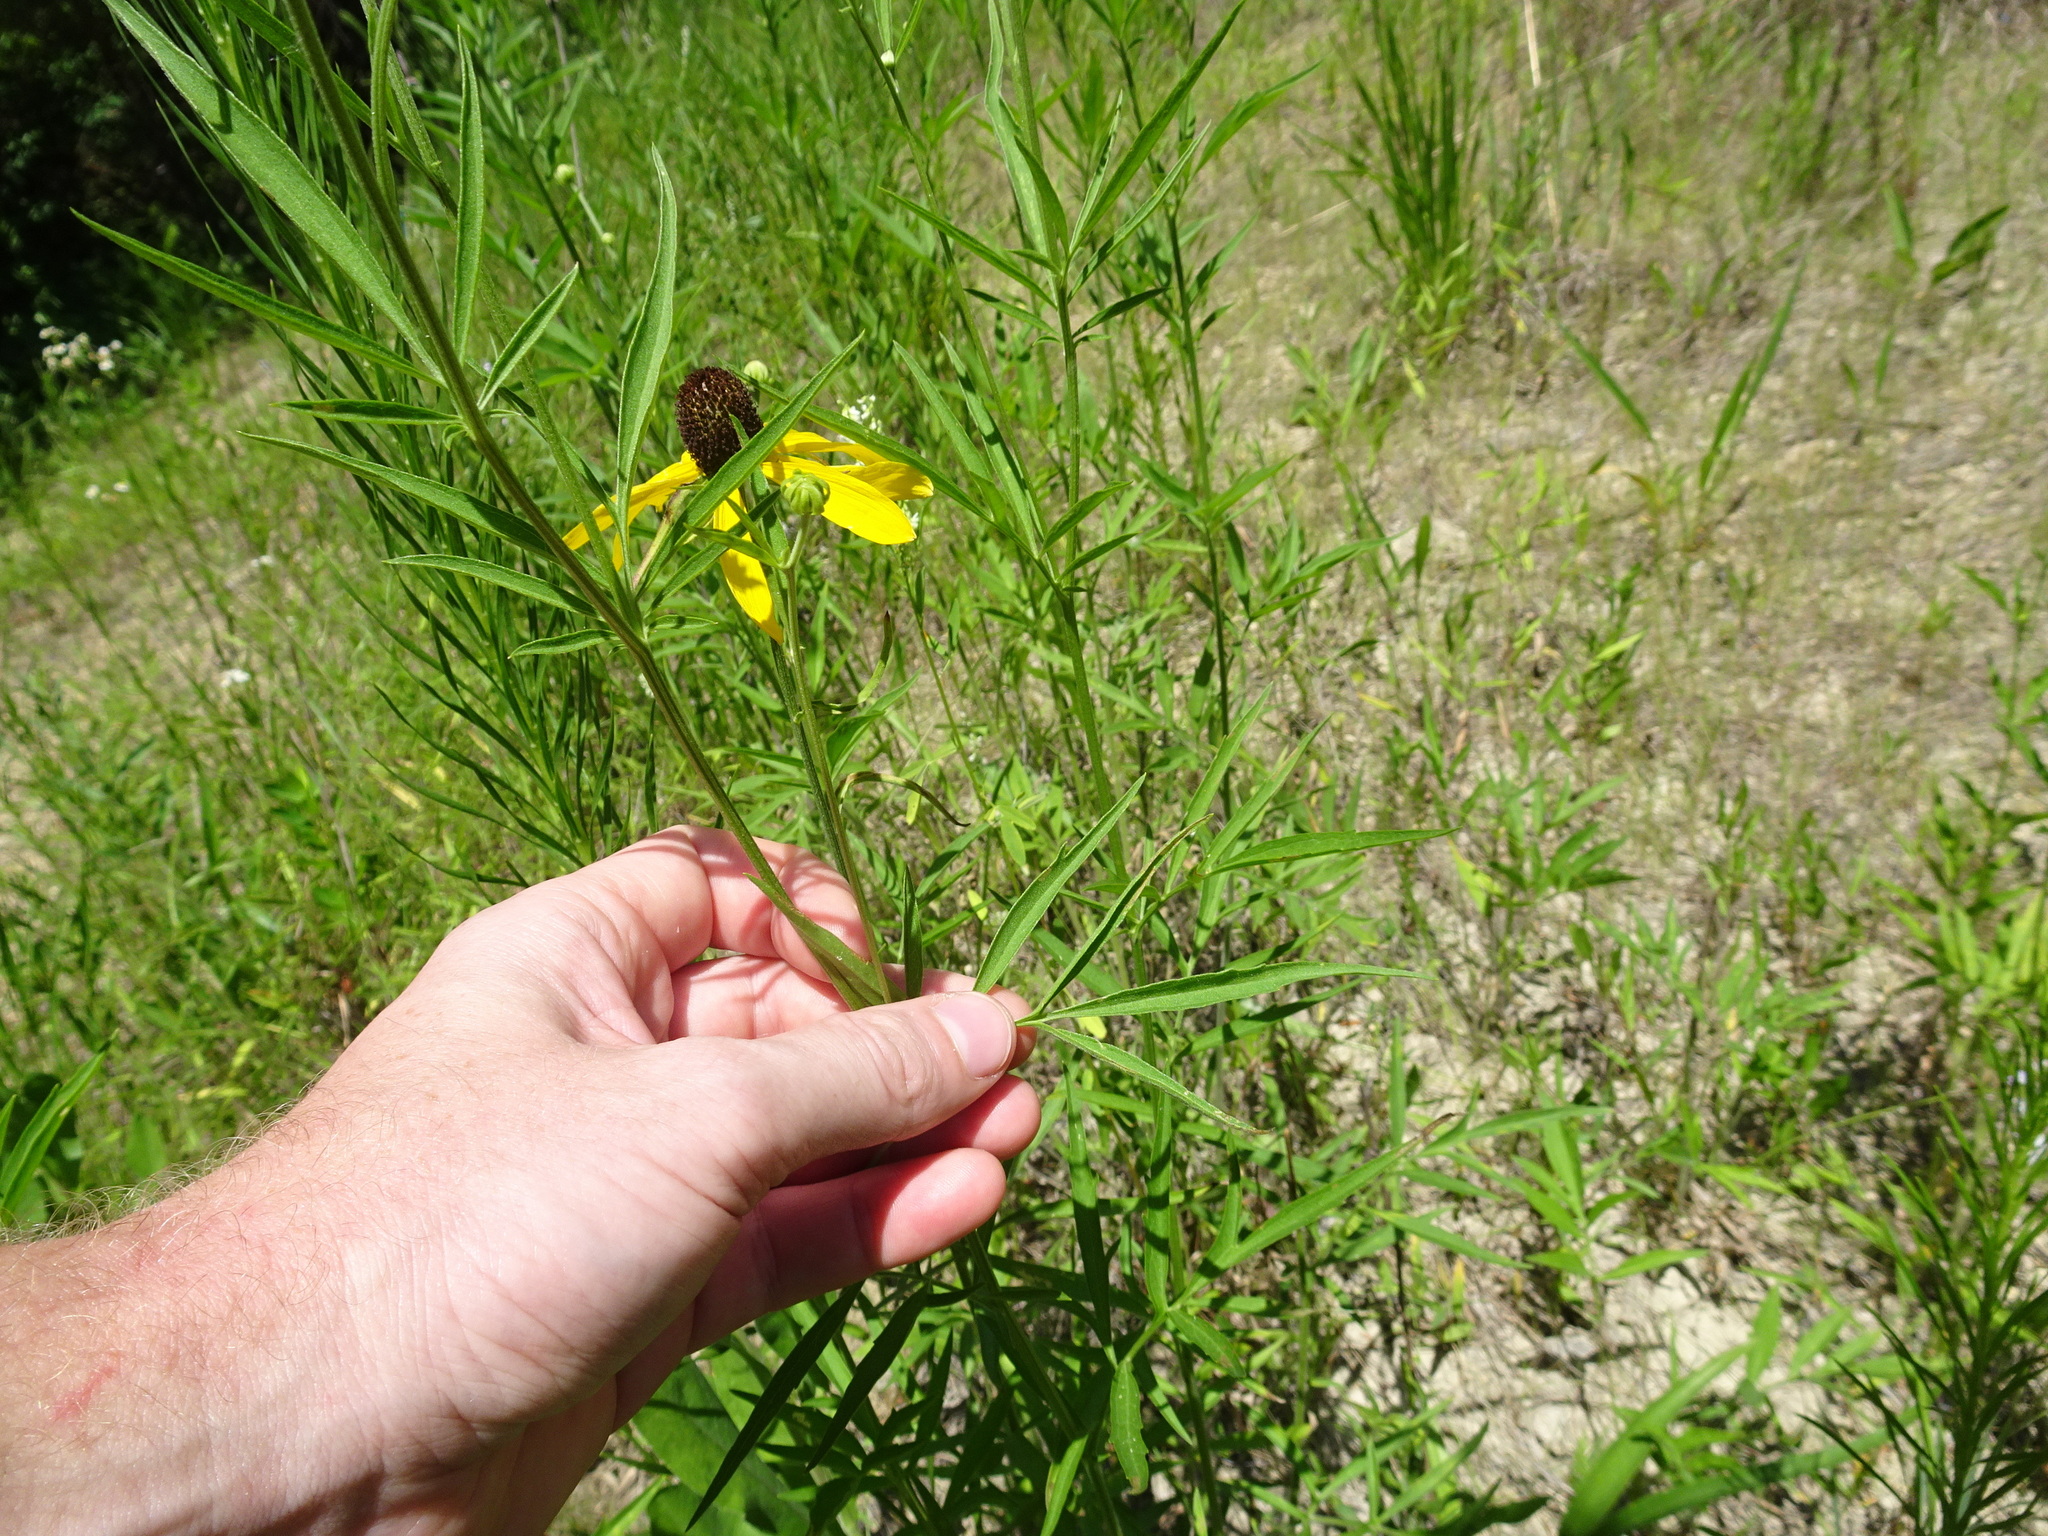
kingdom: Plantae
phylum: Tracheophyta
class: Magnoliopsida
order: Asterales
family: Asteraceae
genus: Ratibida
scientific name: Ratibida pinnata
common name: Drooping prairie-coneflower
